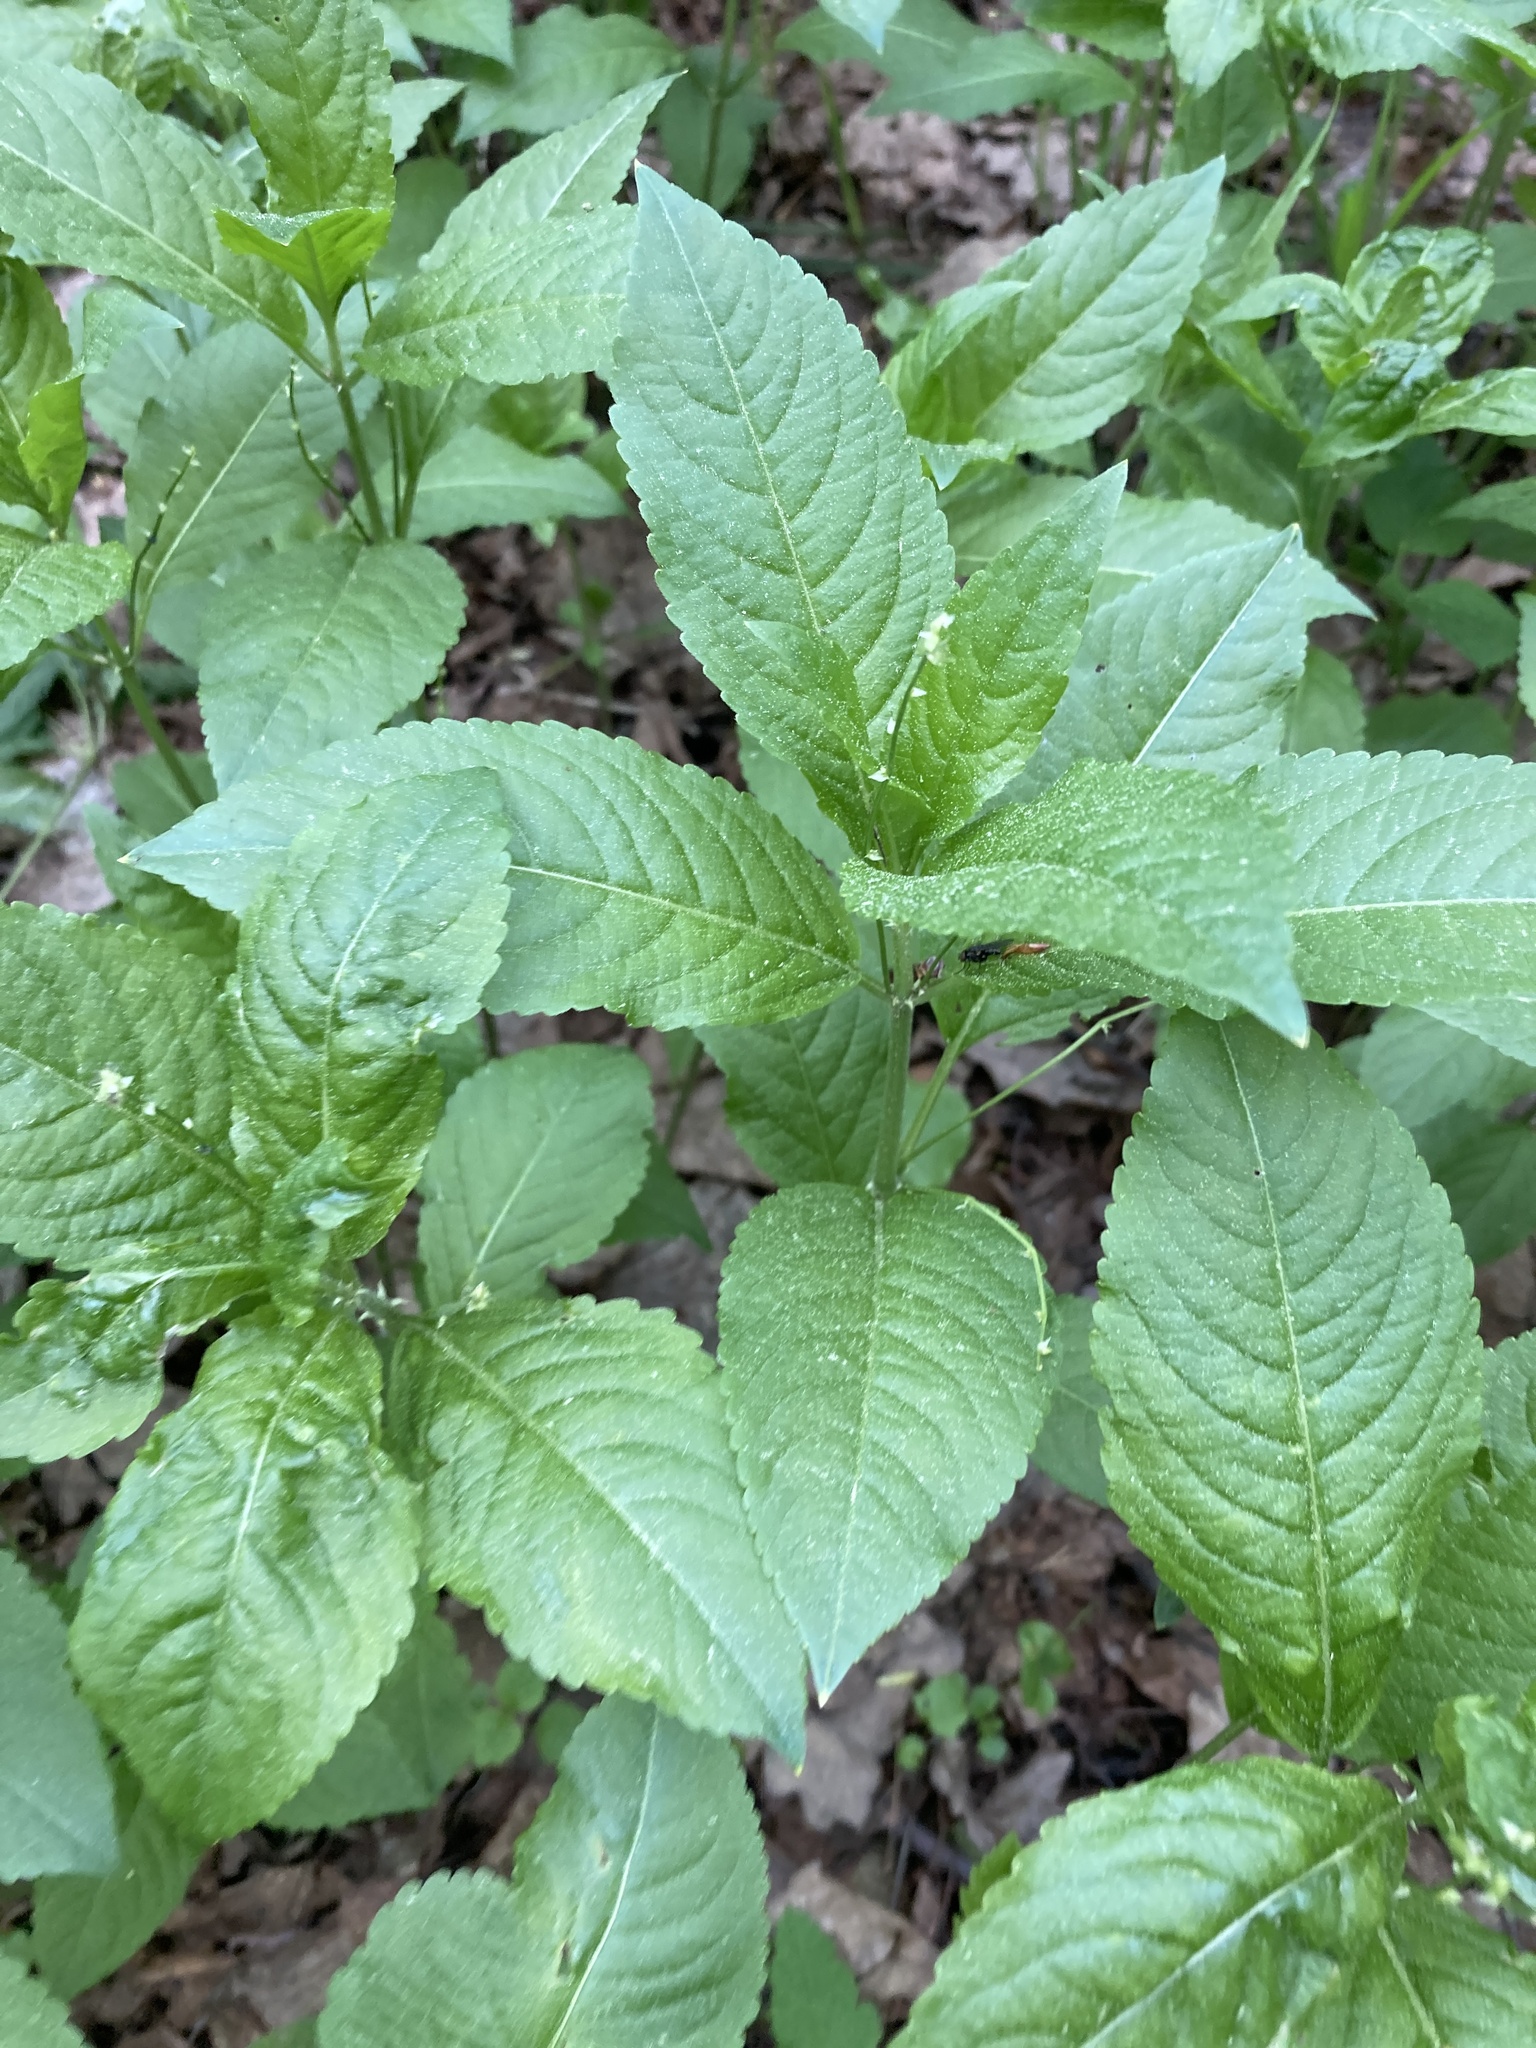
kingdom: Plantae
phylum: Tracheophyta
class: Magnoliopsida
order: Malpighiales
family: Euphorbiaceae
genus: Mercurialis
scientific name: Mercurialis perennis
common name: Dog mercury
